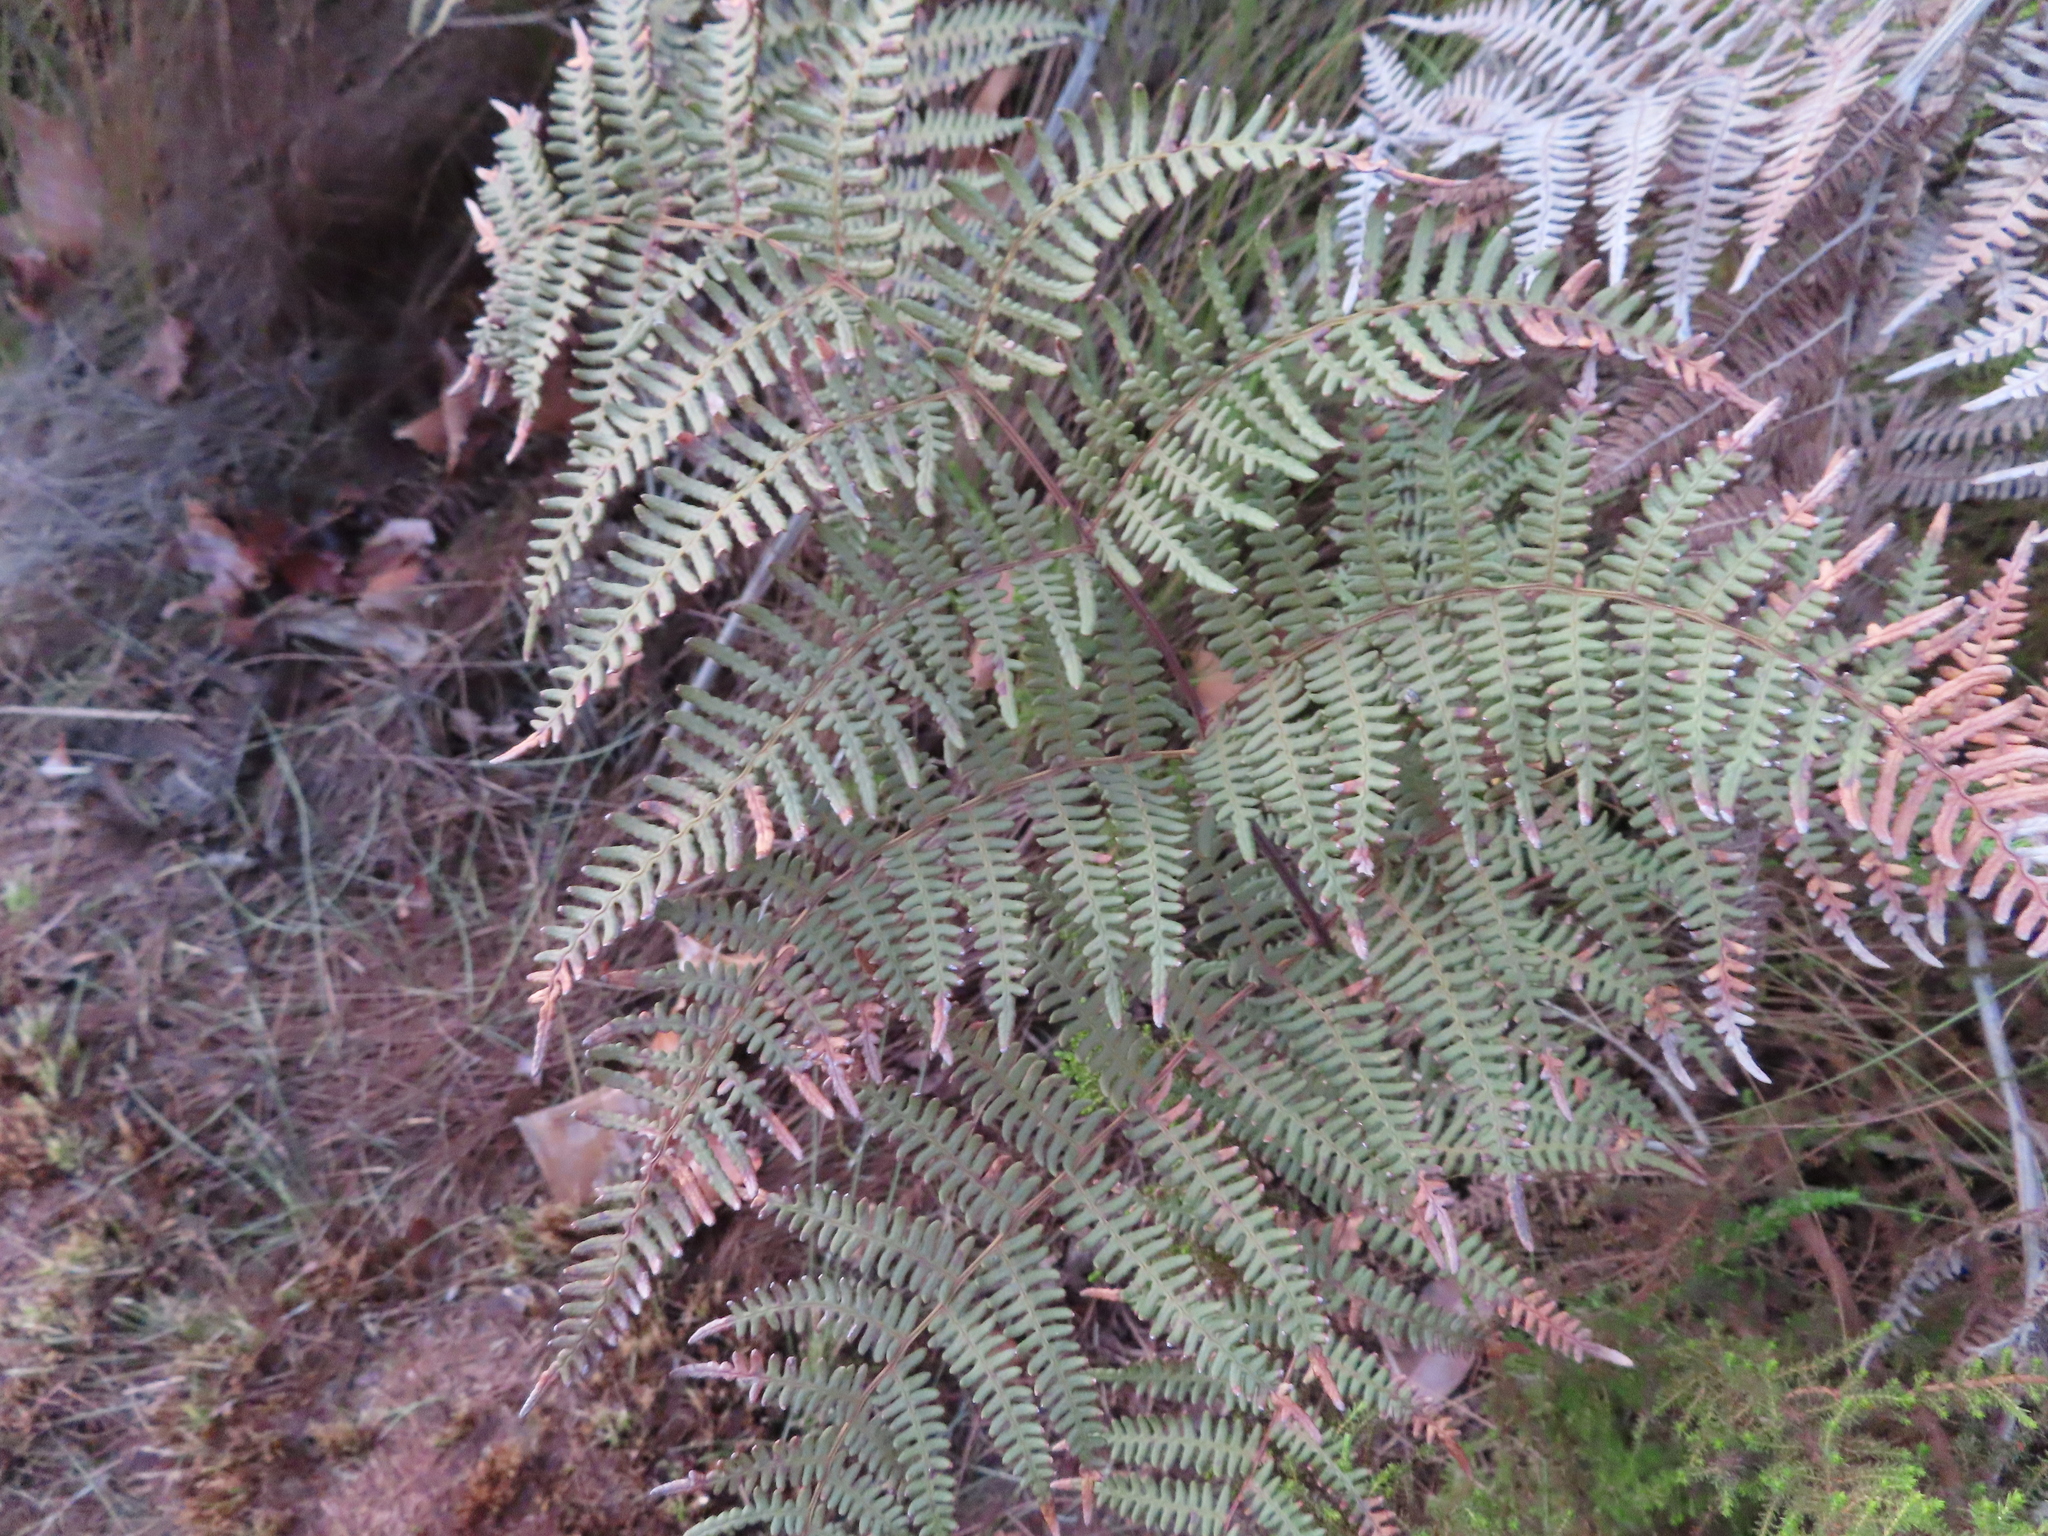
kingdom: Plantae
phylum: Tracheophyta
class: Polypodiopsida
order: Polypodiales
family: Dennstaedtiaceae
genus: Pteridium
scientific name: Pteridium aquilinum
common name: Bracken
